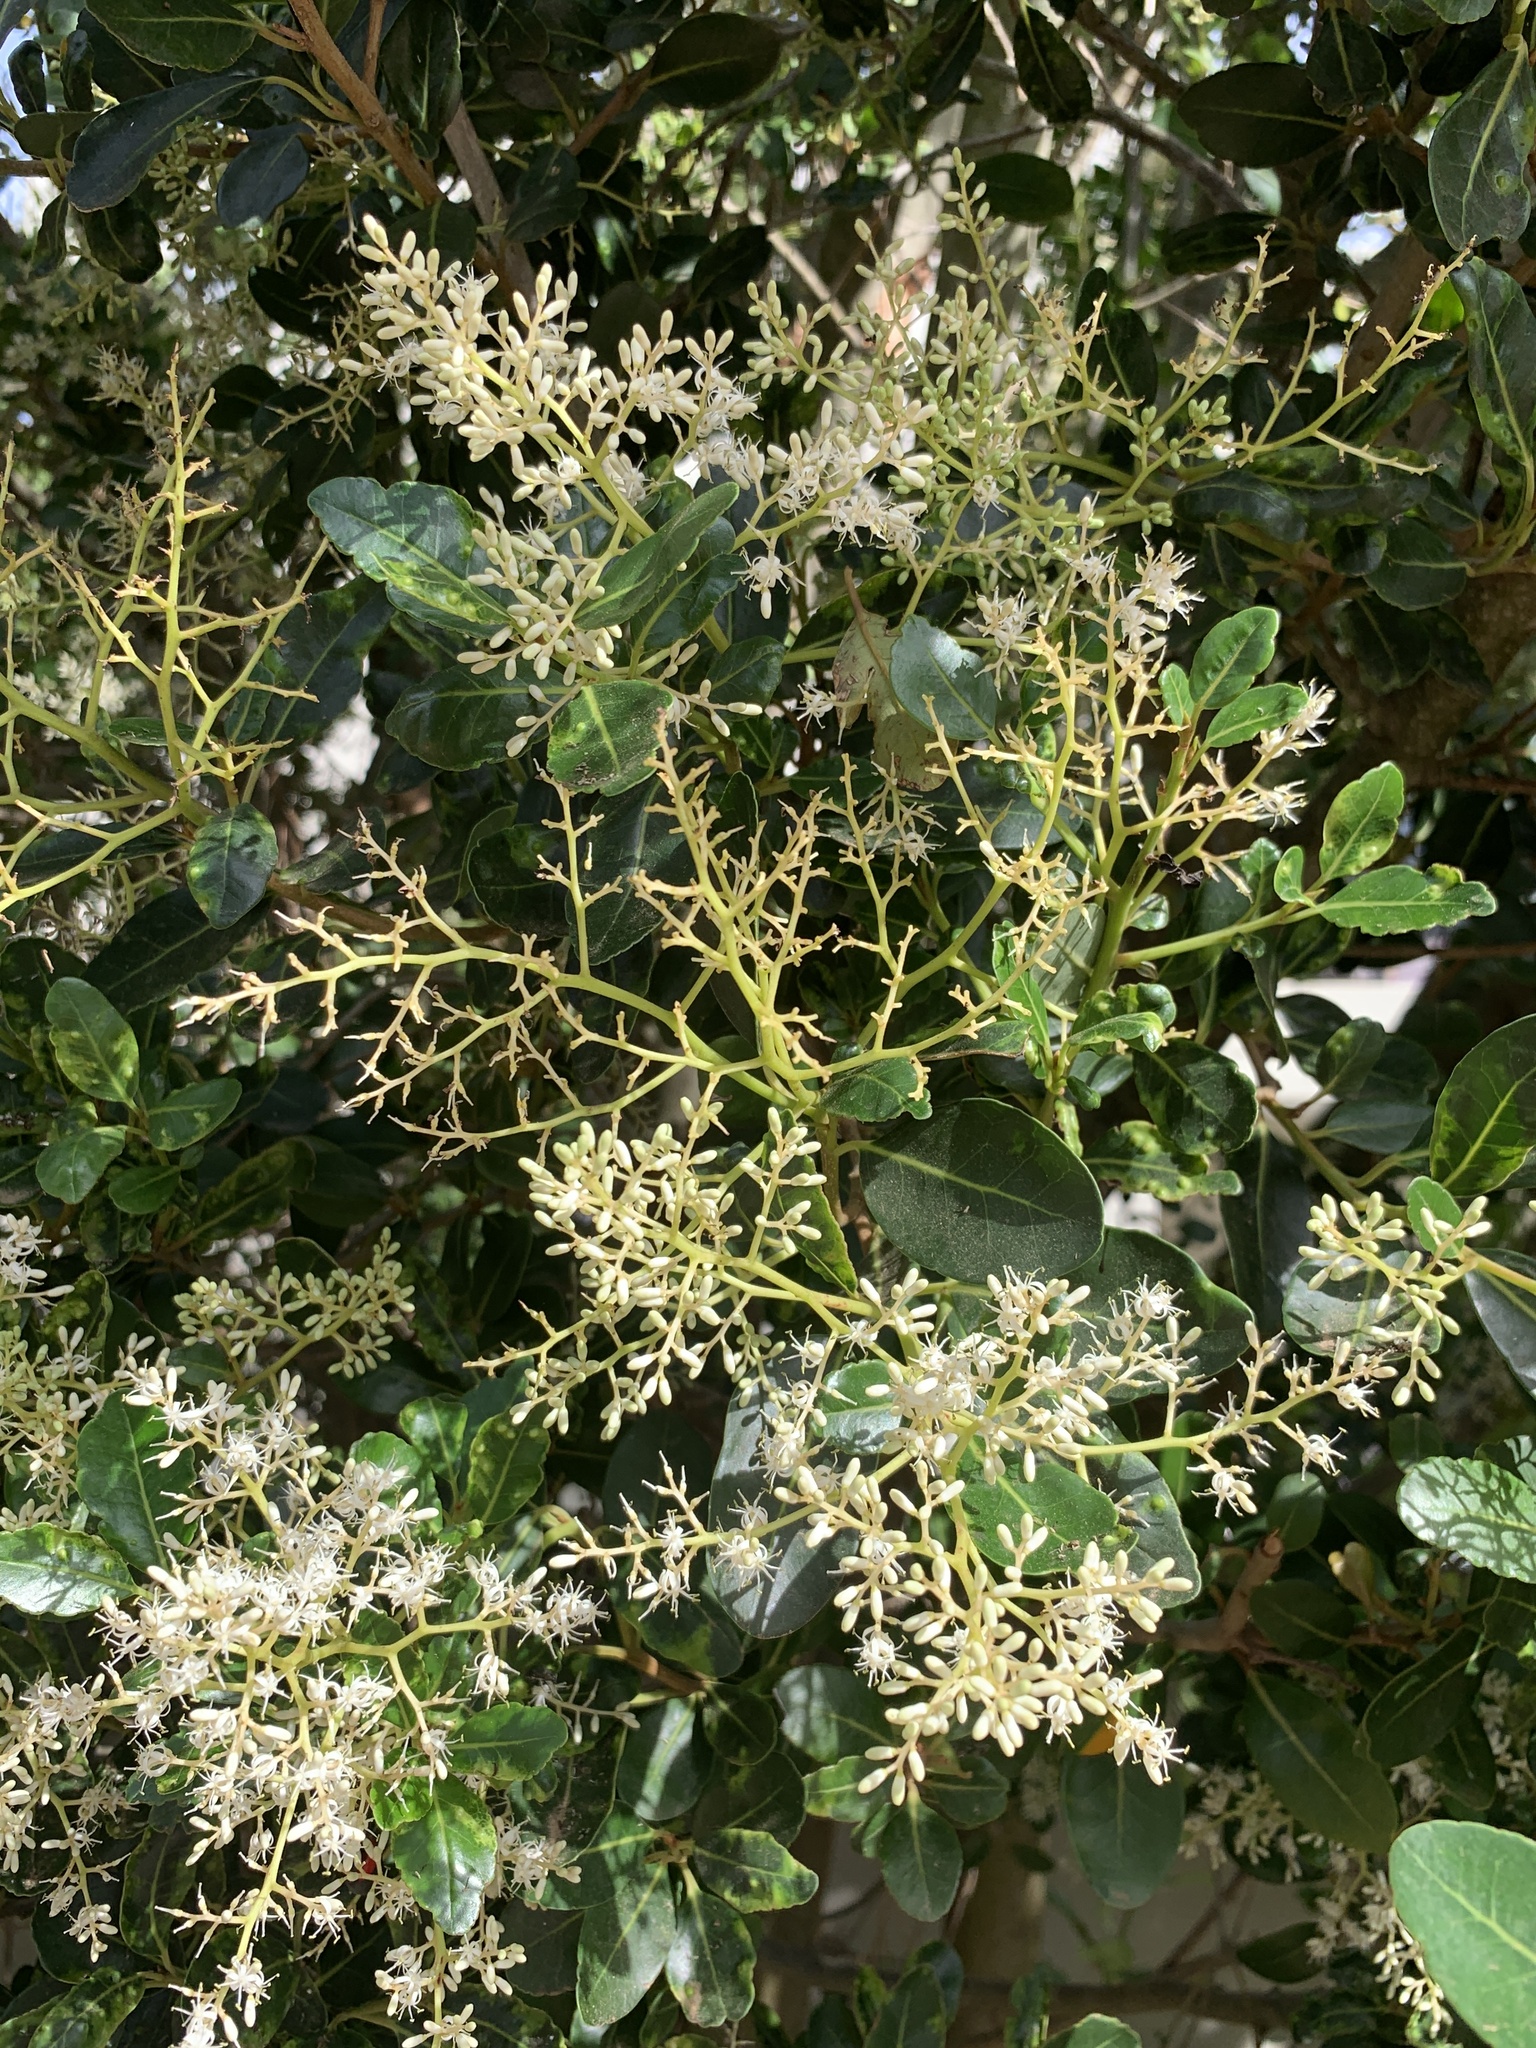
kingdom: Plantae
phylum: Tracheophyta
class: Magnoliopsida
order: Metteniusales
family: Metteniusaceae
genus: Apodytes
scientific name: Apodytes dimidiata
